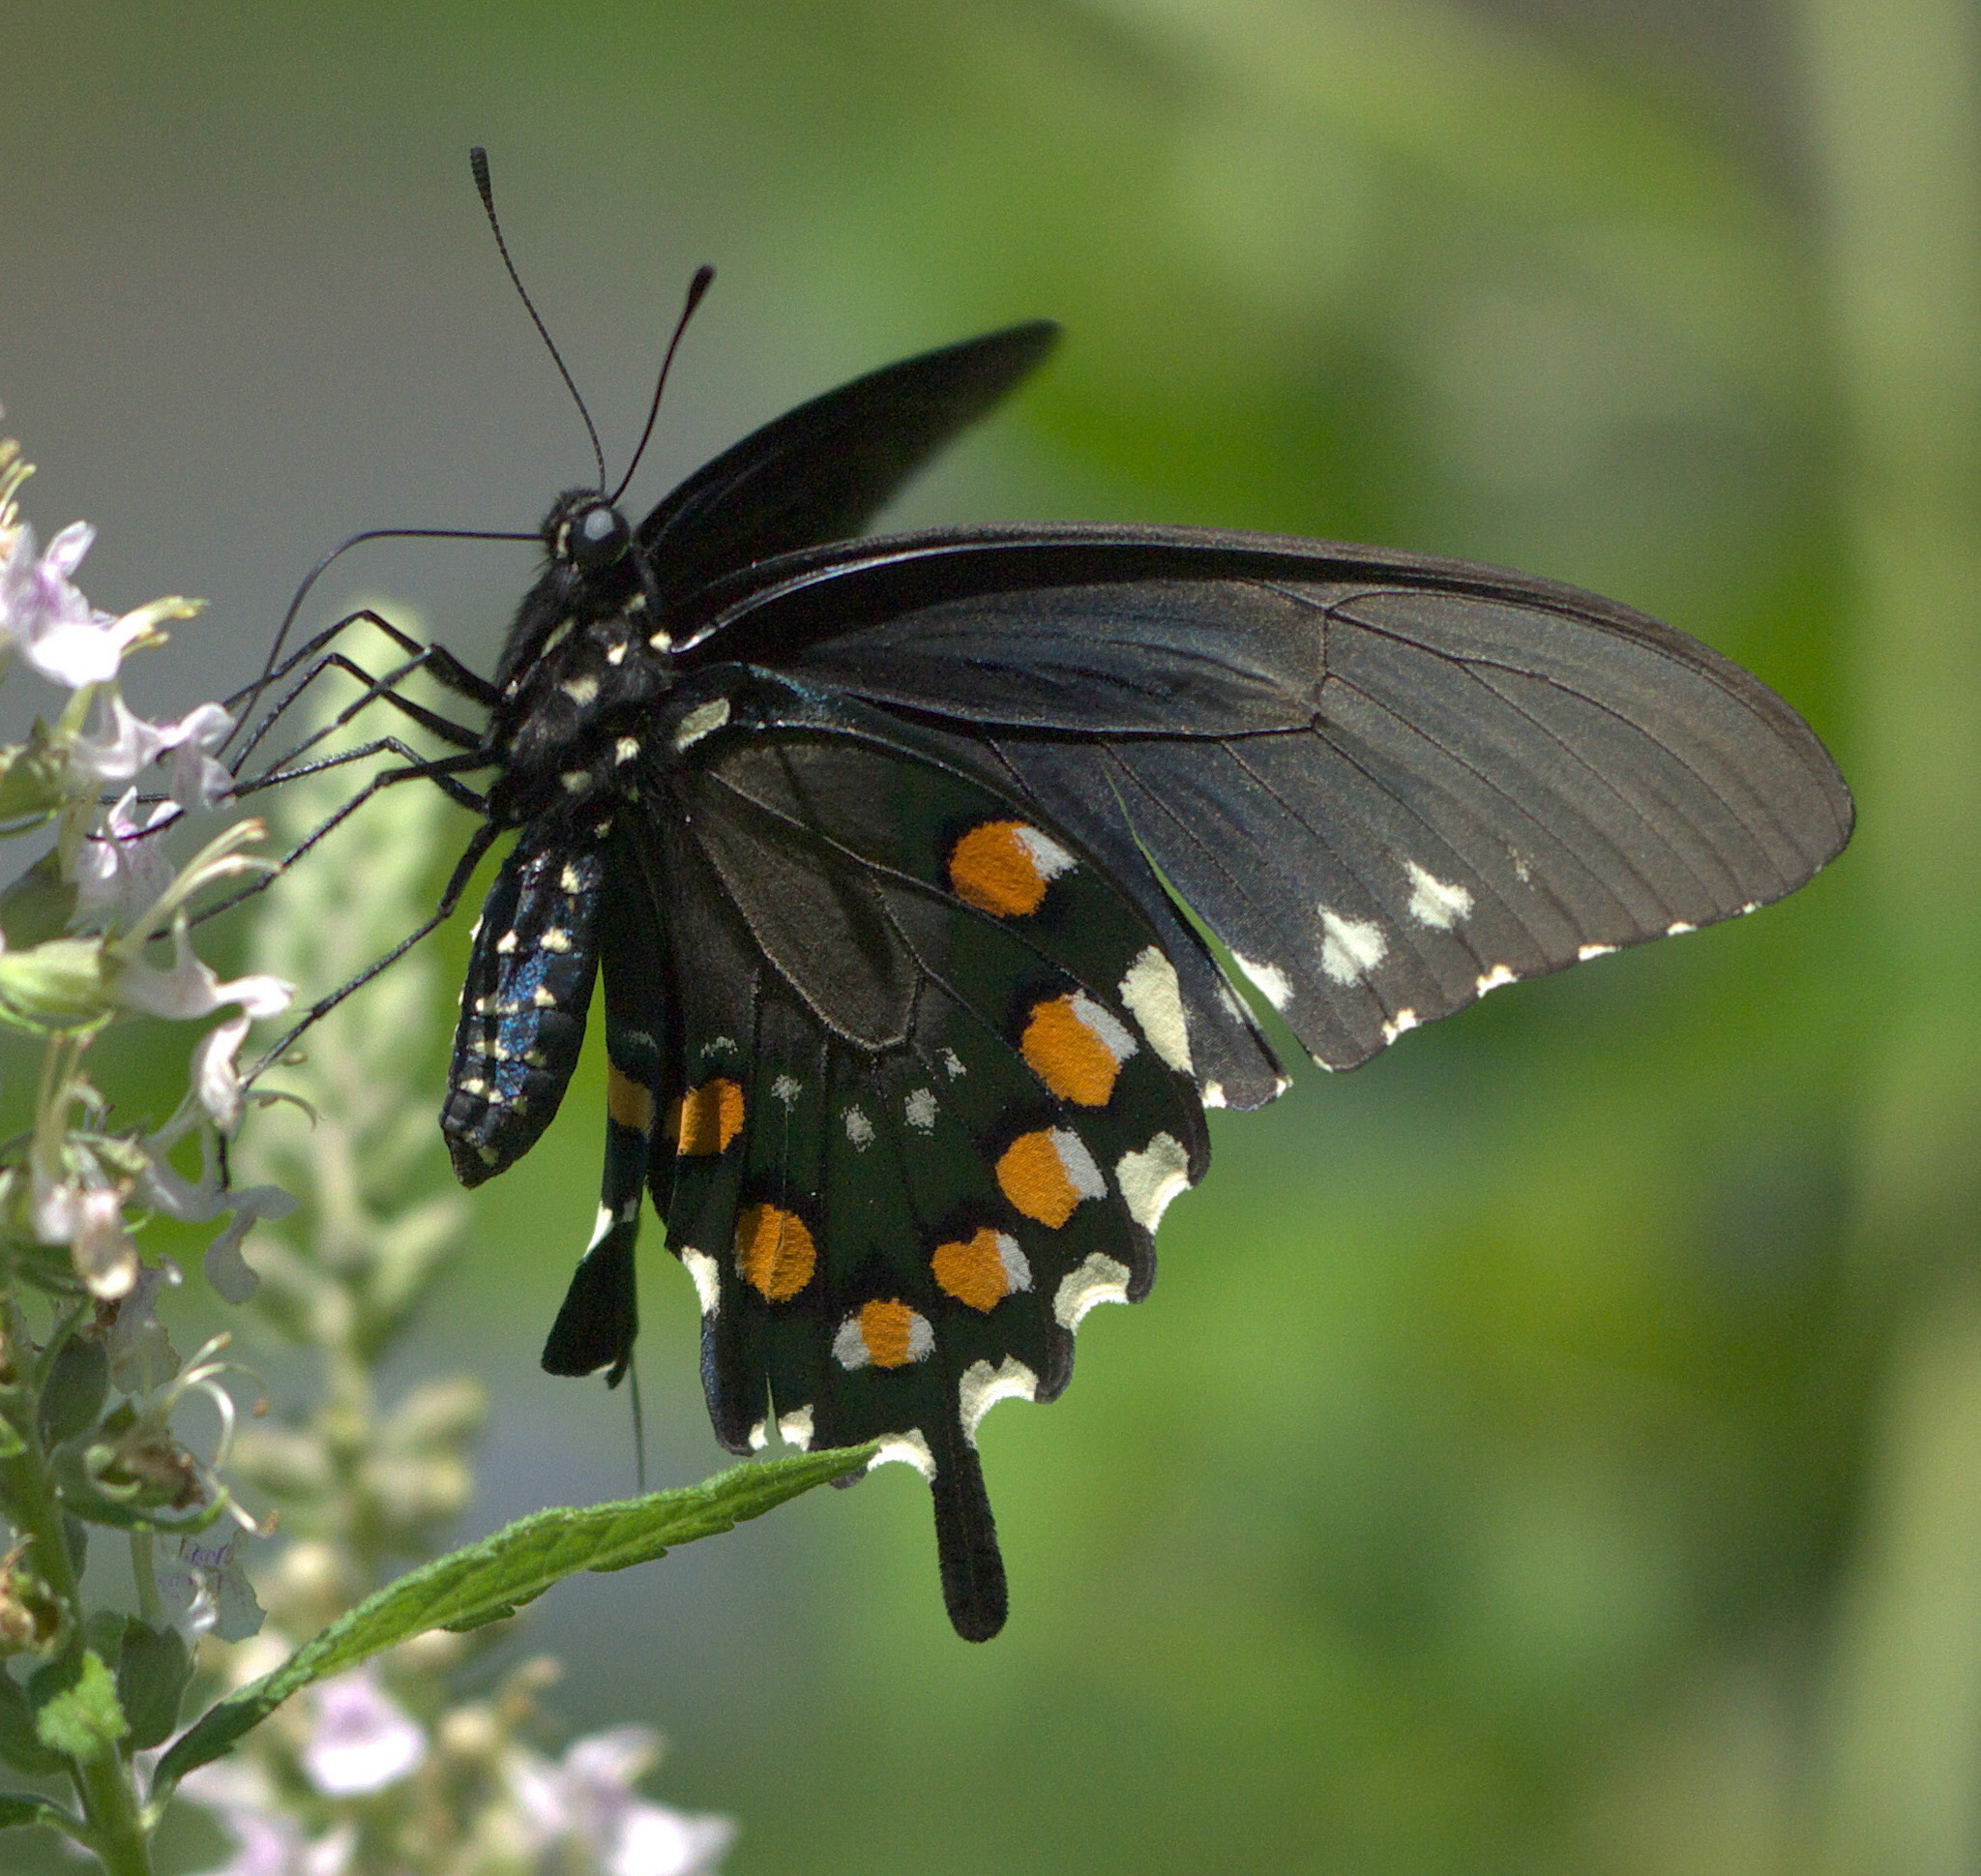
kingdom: Animalia
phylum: Arthropoda
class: Insecta
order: Lepidoptera
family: Papilionidae
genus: Battus
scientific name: Battus philenor
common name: Pipevine swallowtail
